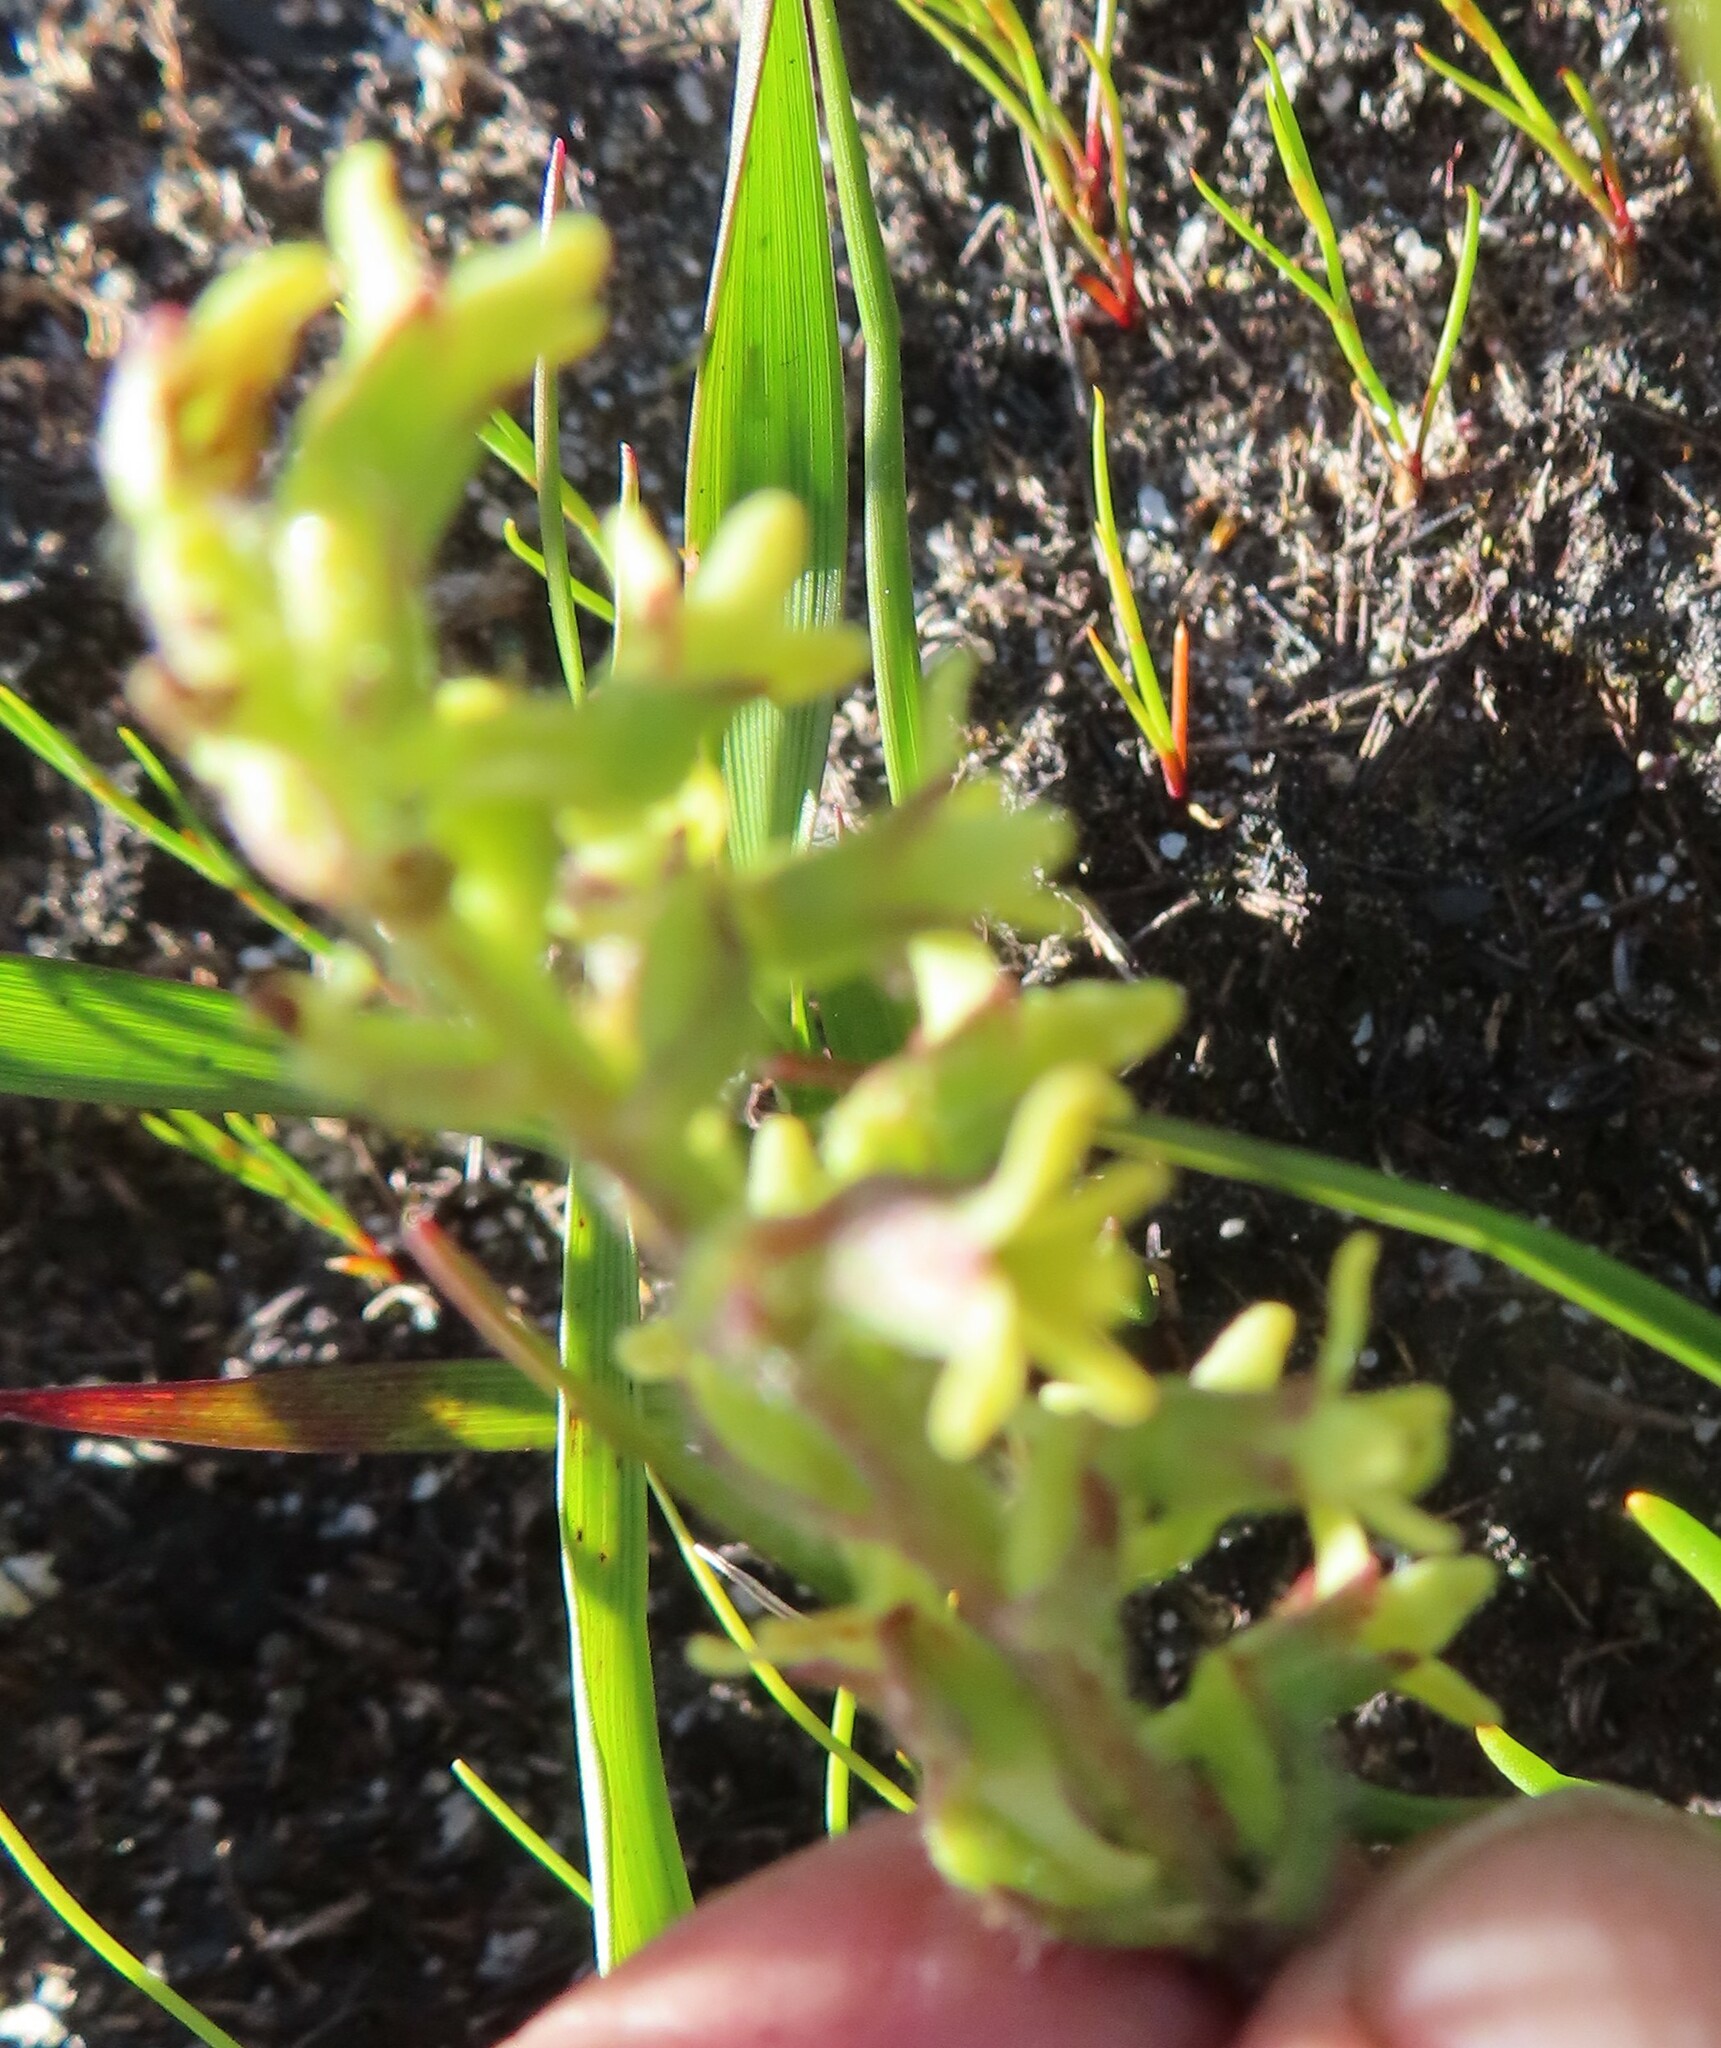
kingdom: Plantae
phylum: Tracheophyta
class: Liliopsida
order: Asparagales
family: Orchidaceae
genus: Holothrix
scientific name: Holothrix condensata
